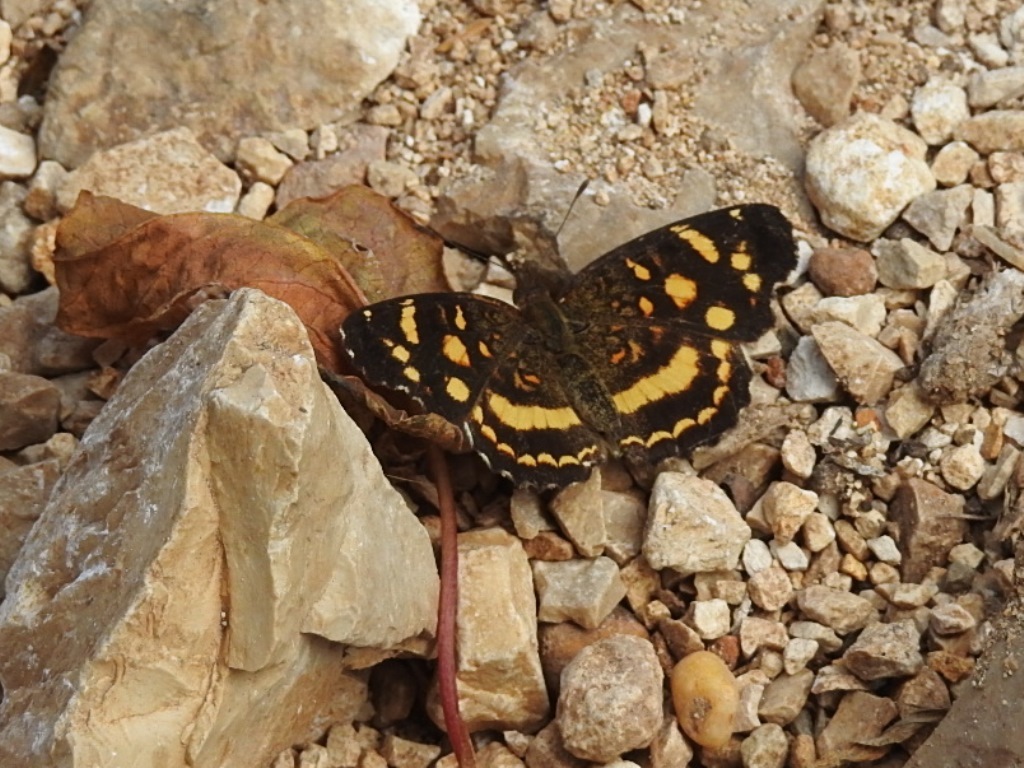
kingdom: Animalia
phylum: Arthropoda
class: Insecta
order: Lepidoptera
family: Nymphalidae
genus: Anthanassa
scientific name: Anthanassa tulcis
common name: Pale-banded crescent
